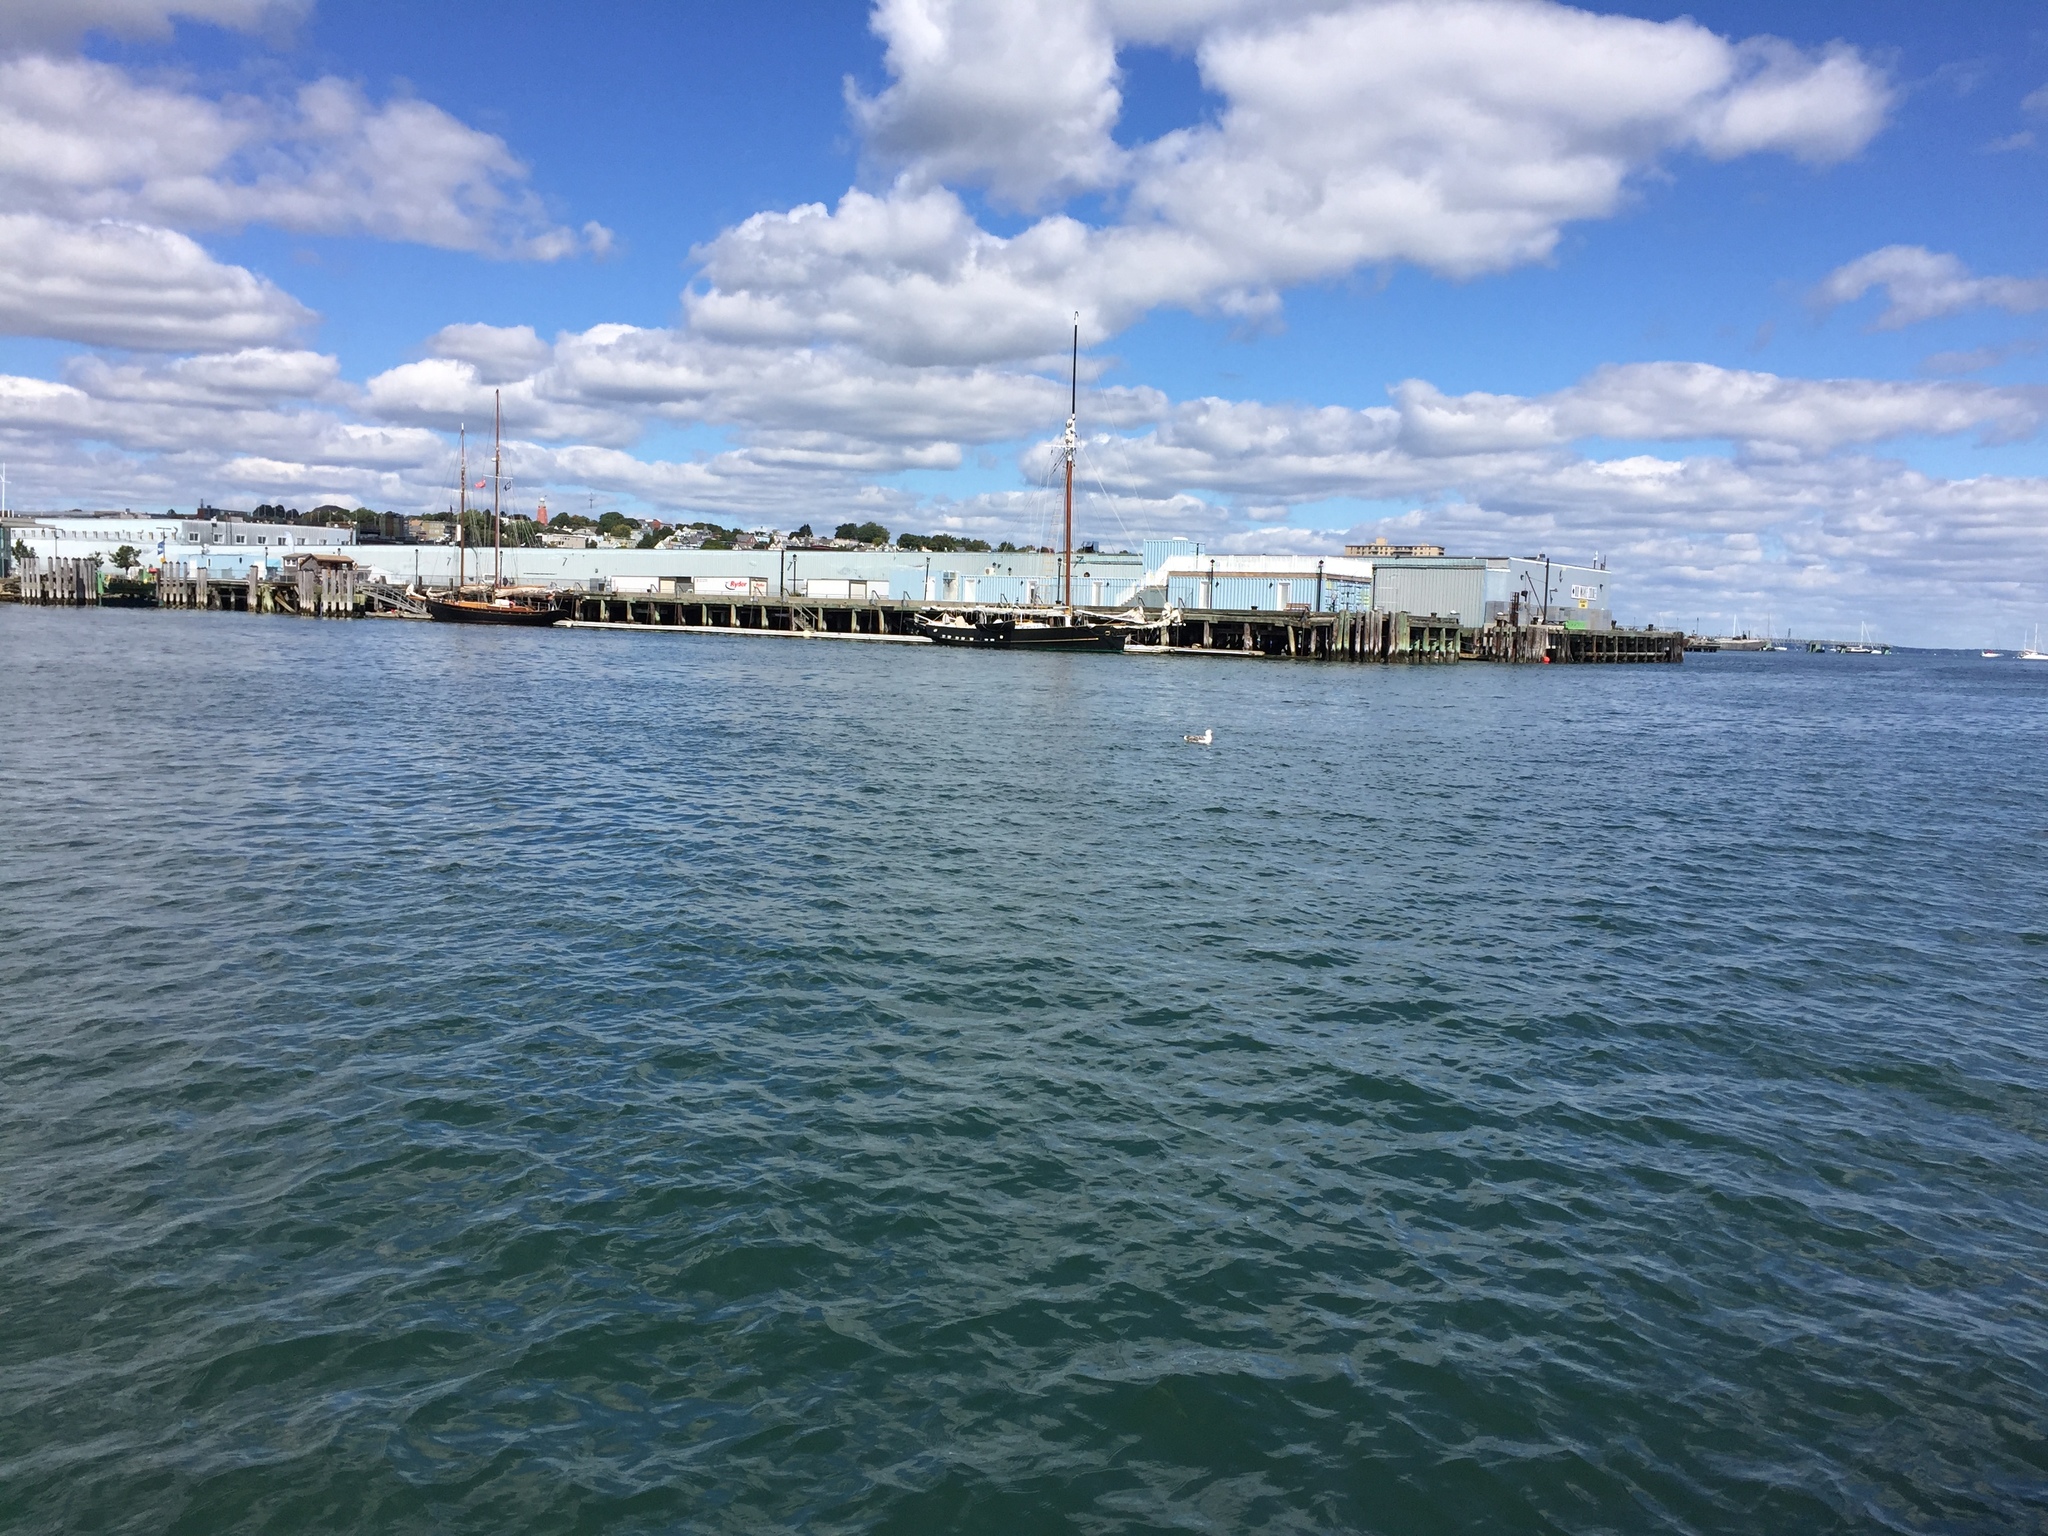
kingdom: Animalia
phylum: Chordata
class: Aves
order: Charadriiformes
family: Laridae
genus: Larus
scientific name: Larus marinus
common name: Great black-backed gull
